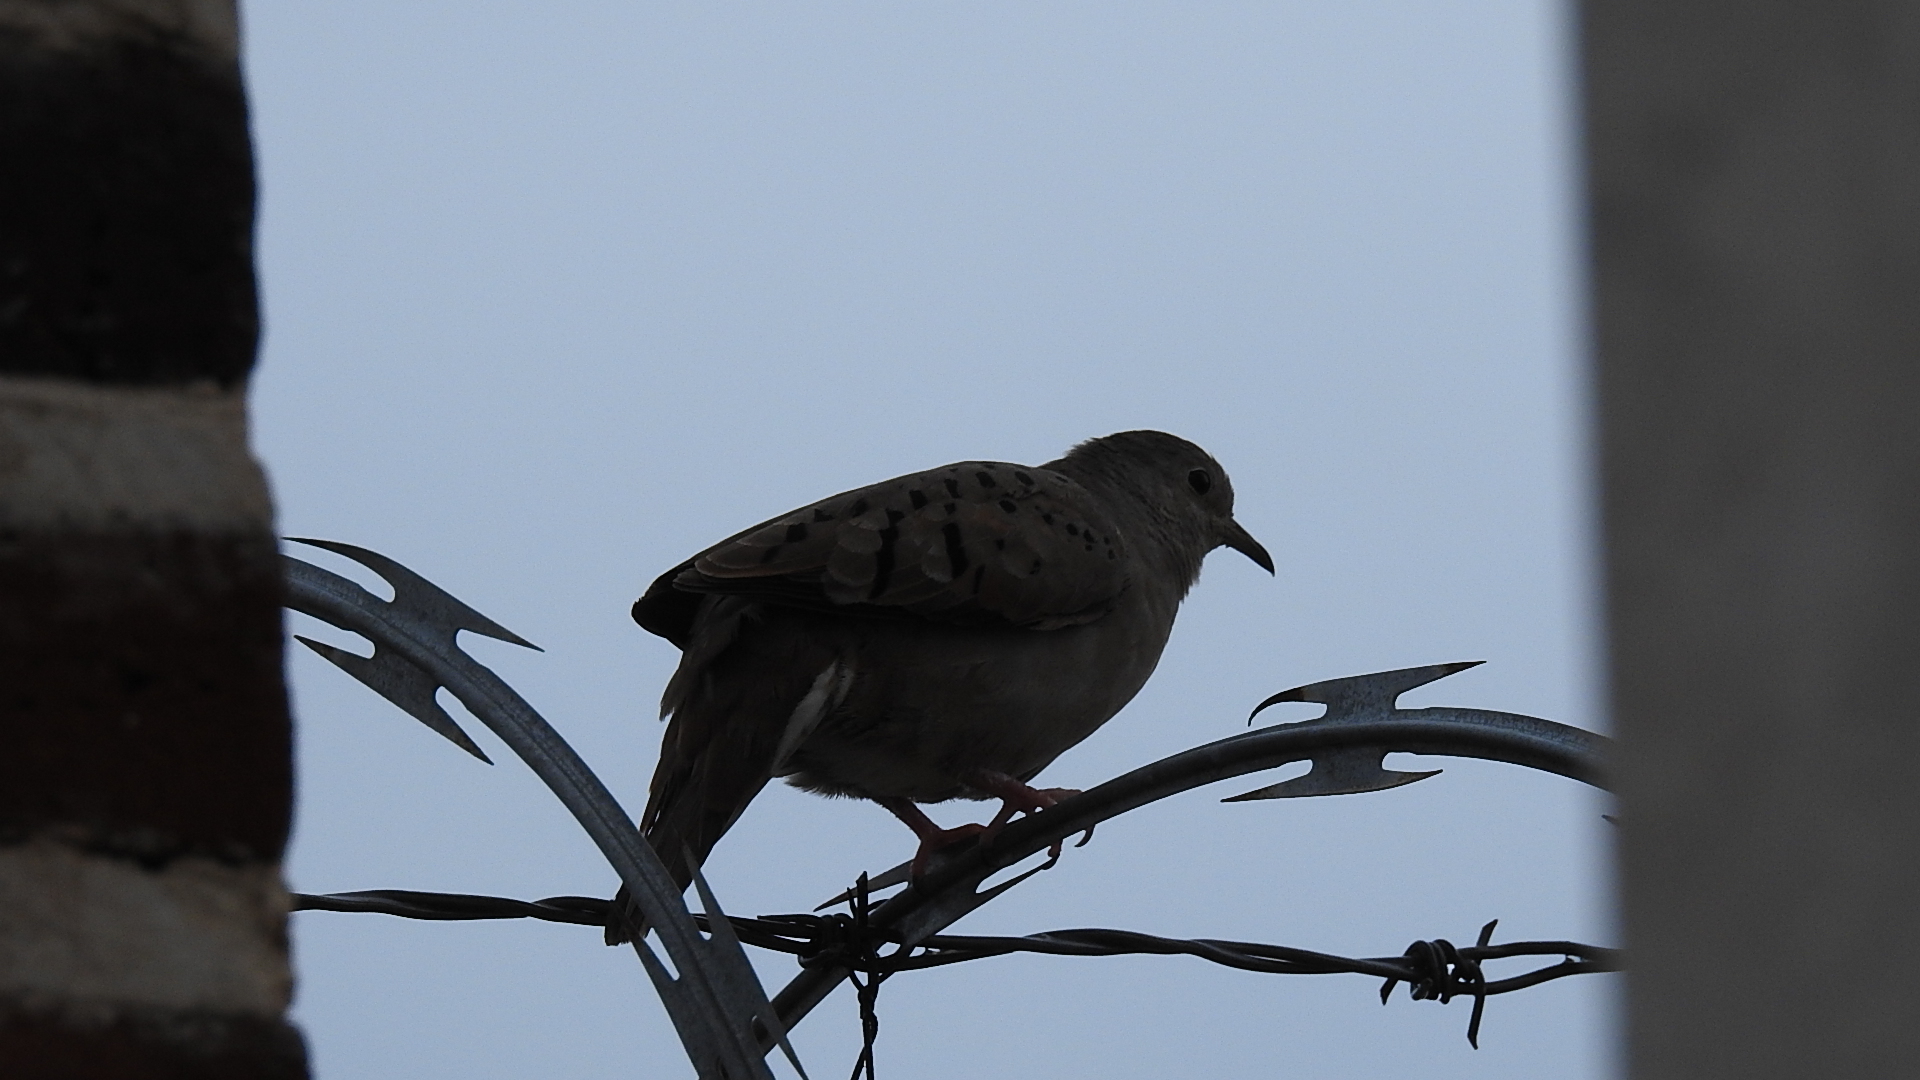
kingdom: Animalia
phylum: Chordata
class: Aves
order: Columbiformes
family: Columbidae
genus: Columbina
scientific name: Columbina talpacoti
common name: Ruddy ground dove
